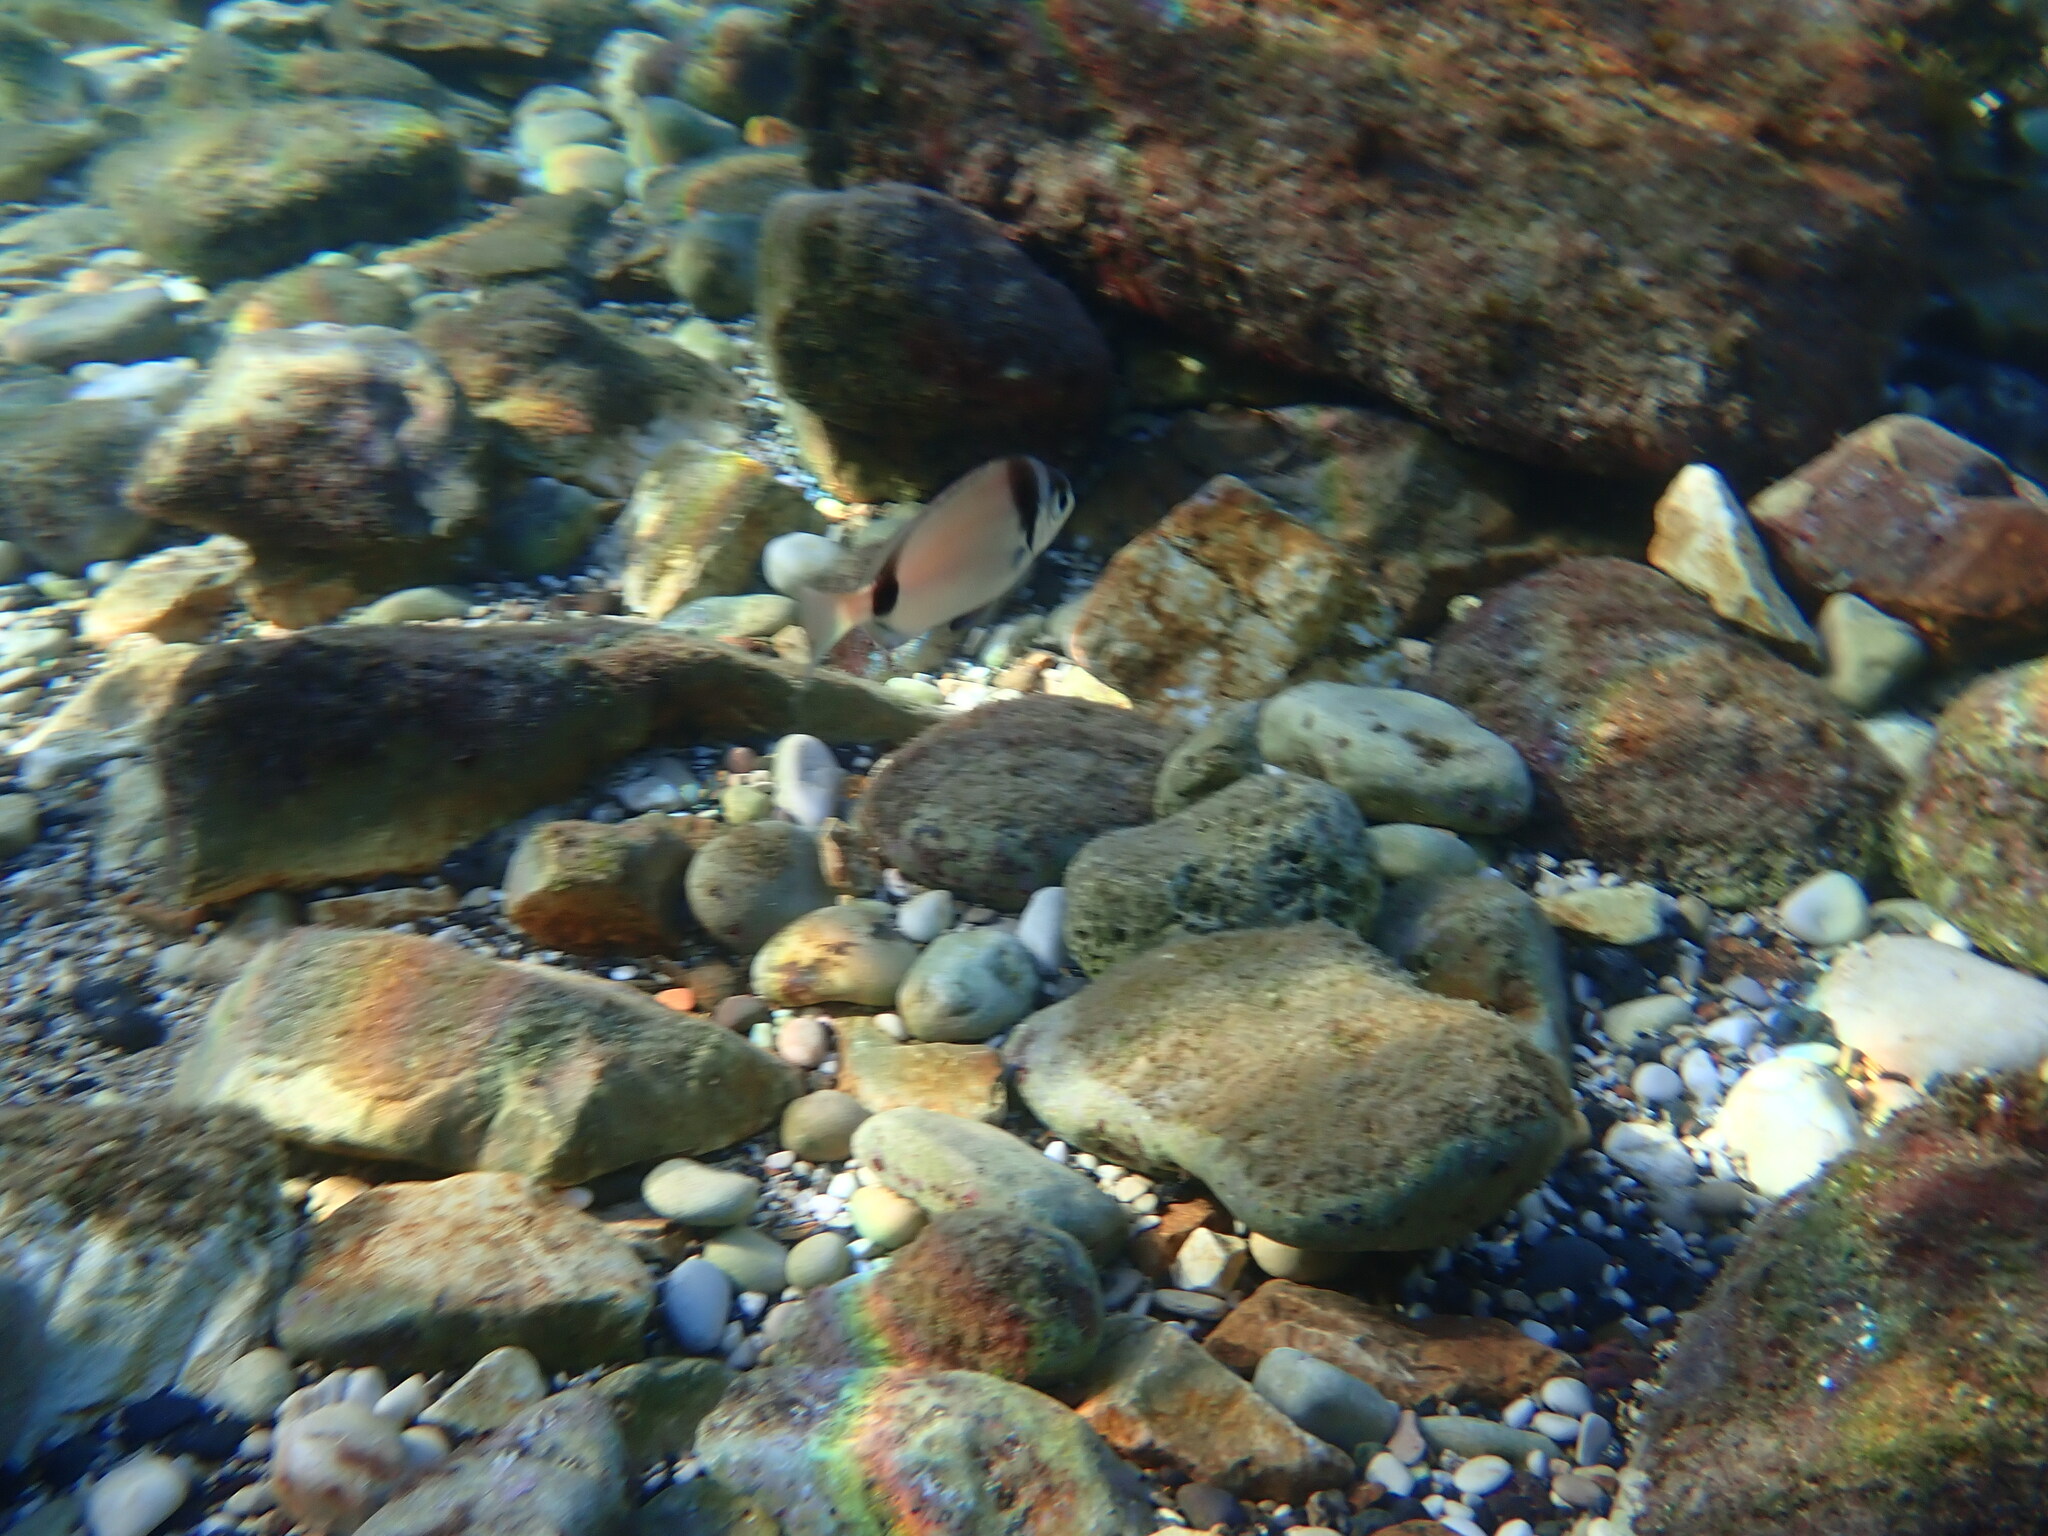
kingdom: Animalia
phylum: Chordata
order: Perciformes
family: Sparidae
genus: Diplodus
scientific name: Diplodus vulgaris
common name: Common two-banded seabream
